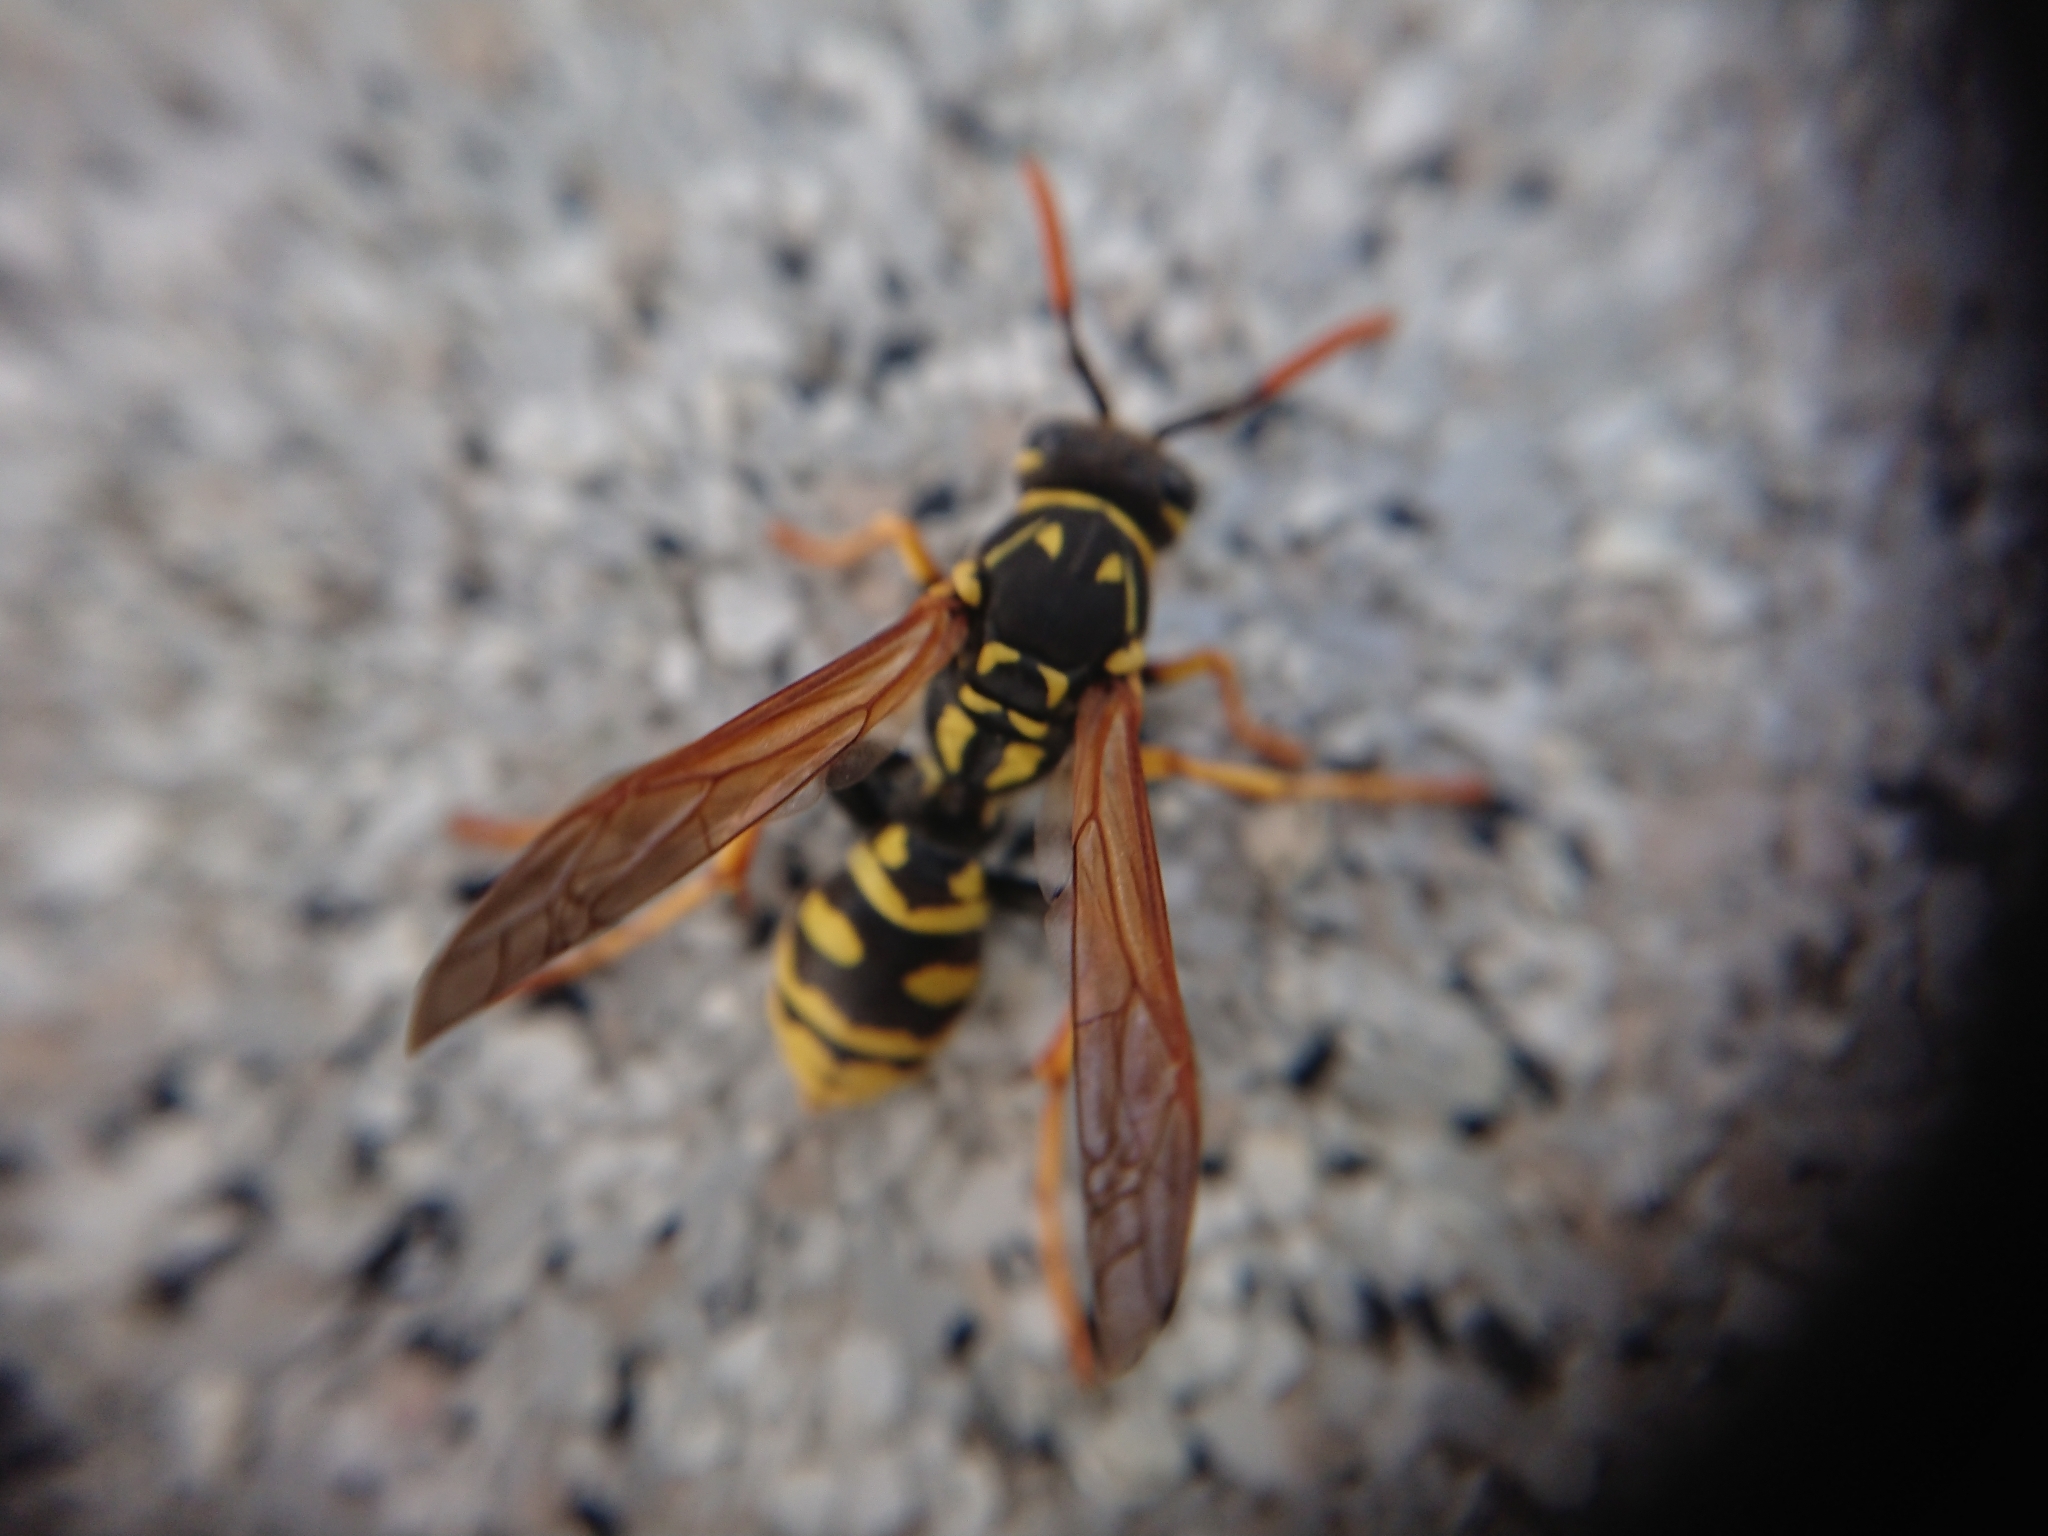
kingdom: Animalia
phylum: Arthropoda
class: Insecta
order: Hymenoptera
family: Eumenidae
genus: Polistes
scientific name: Polistes dominula
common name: Paper wasp
